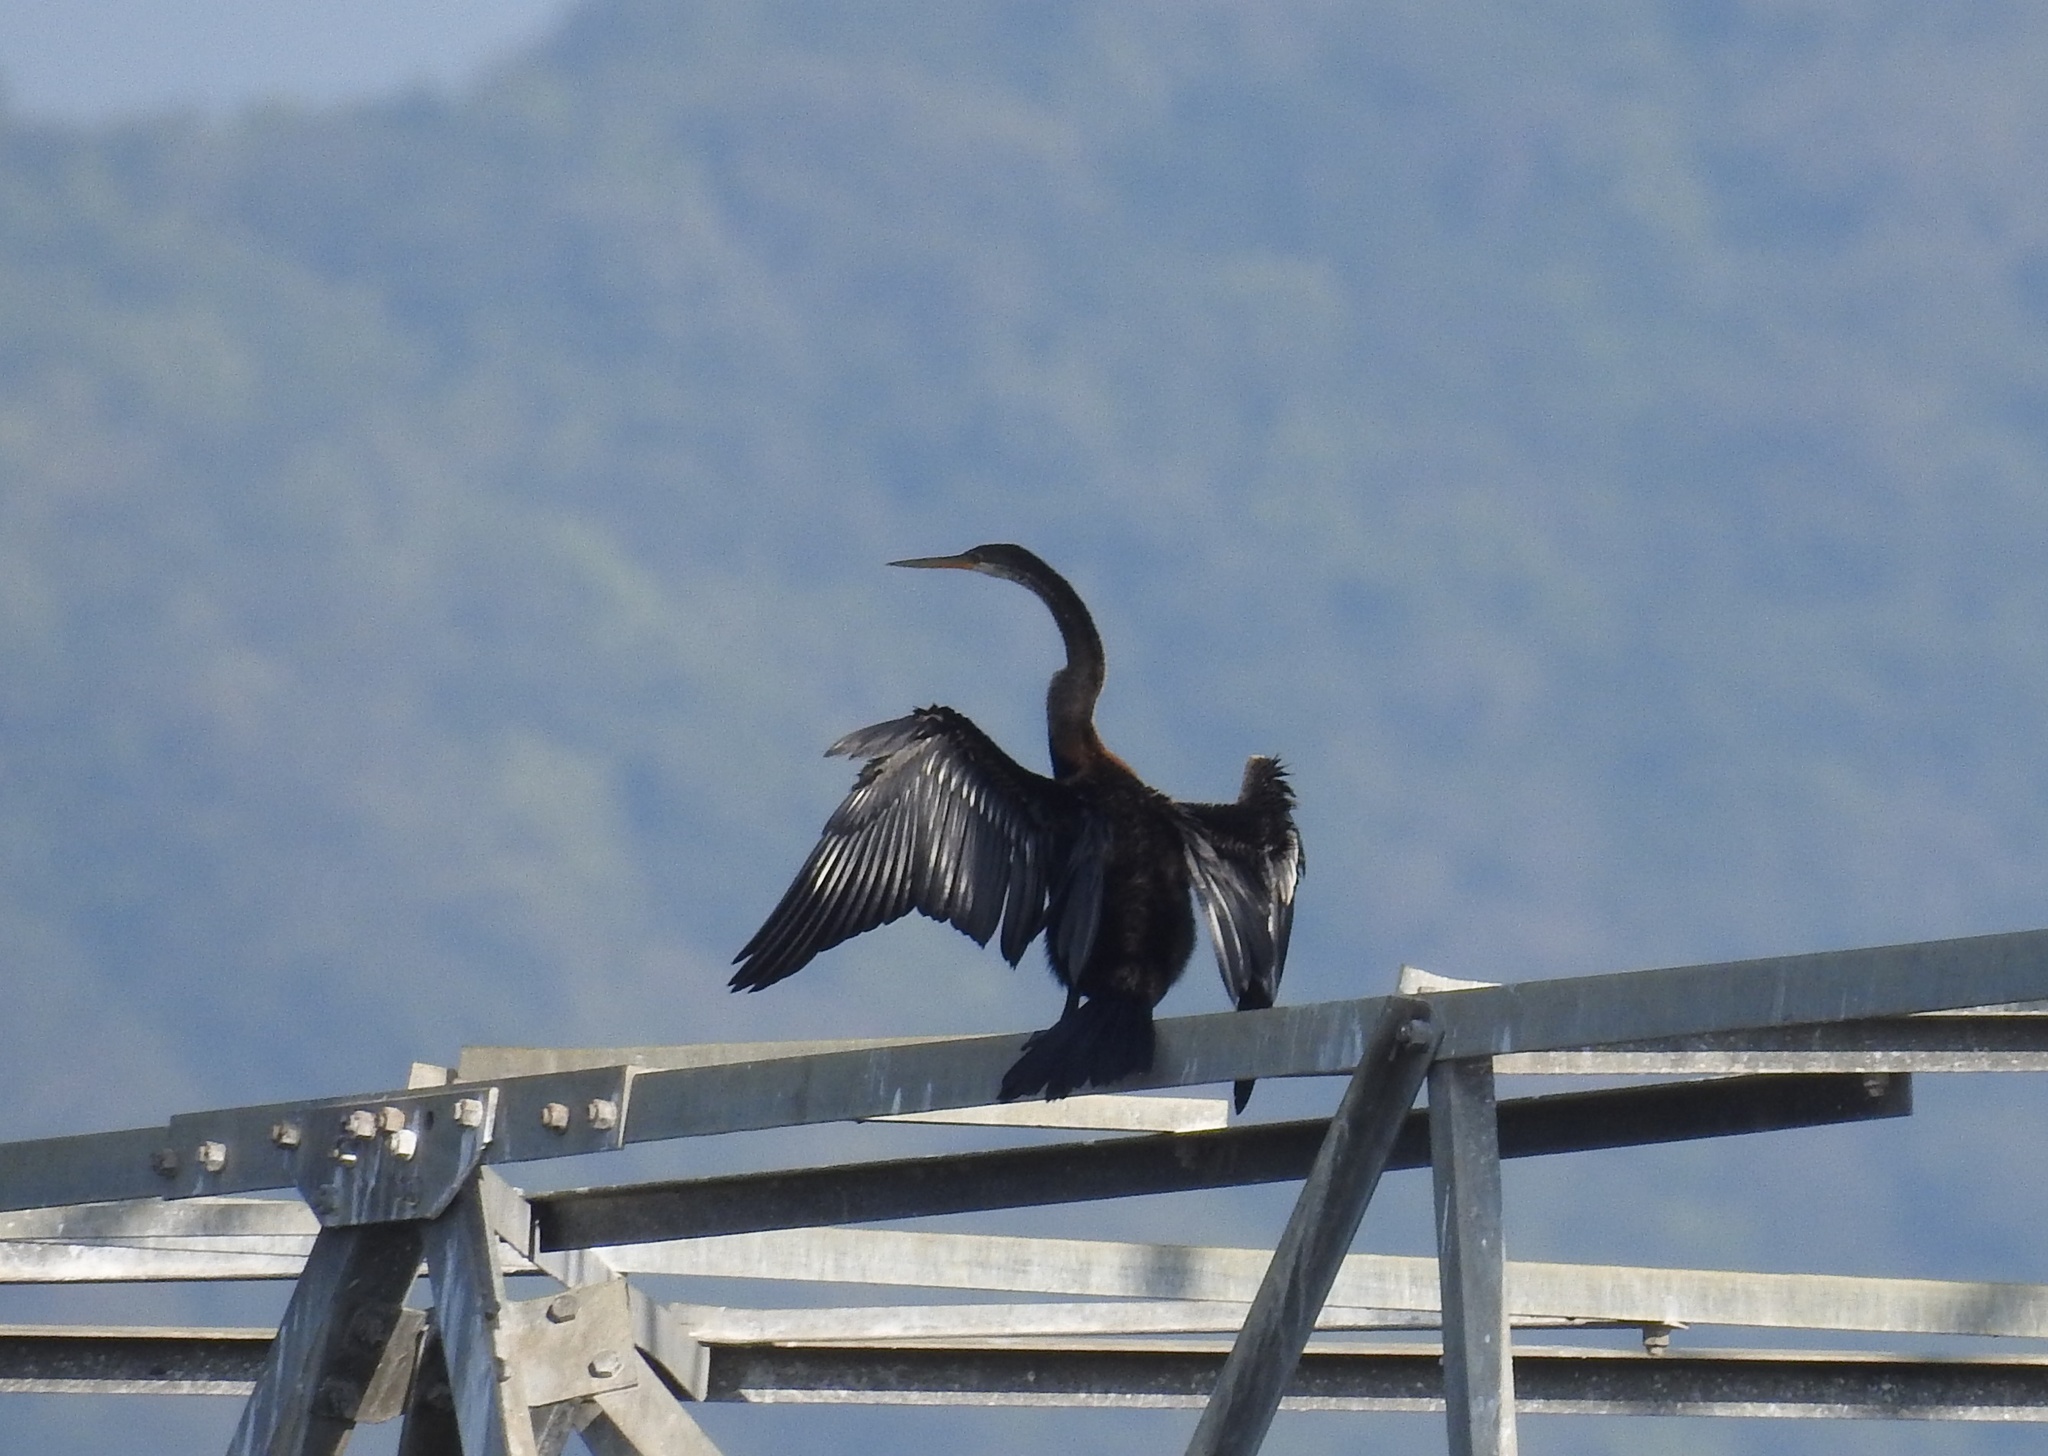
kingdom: Animalia
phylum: Chordata
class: Aves
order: Suliformes
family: Anhingidae
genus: Anhinga
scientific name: Anhinga melanogaster
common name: Oriental darter
